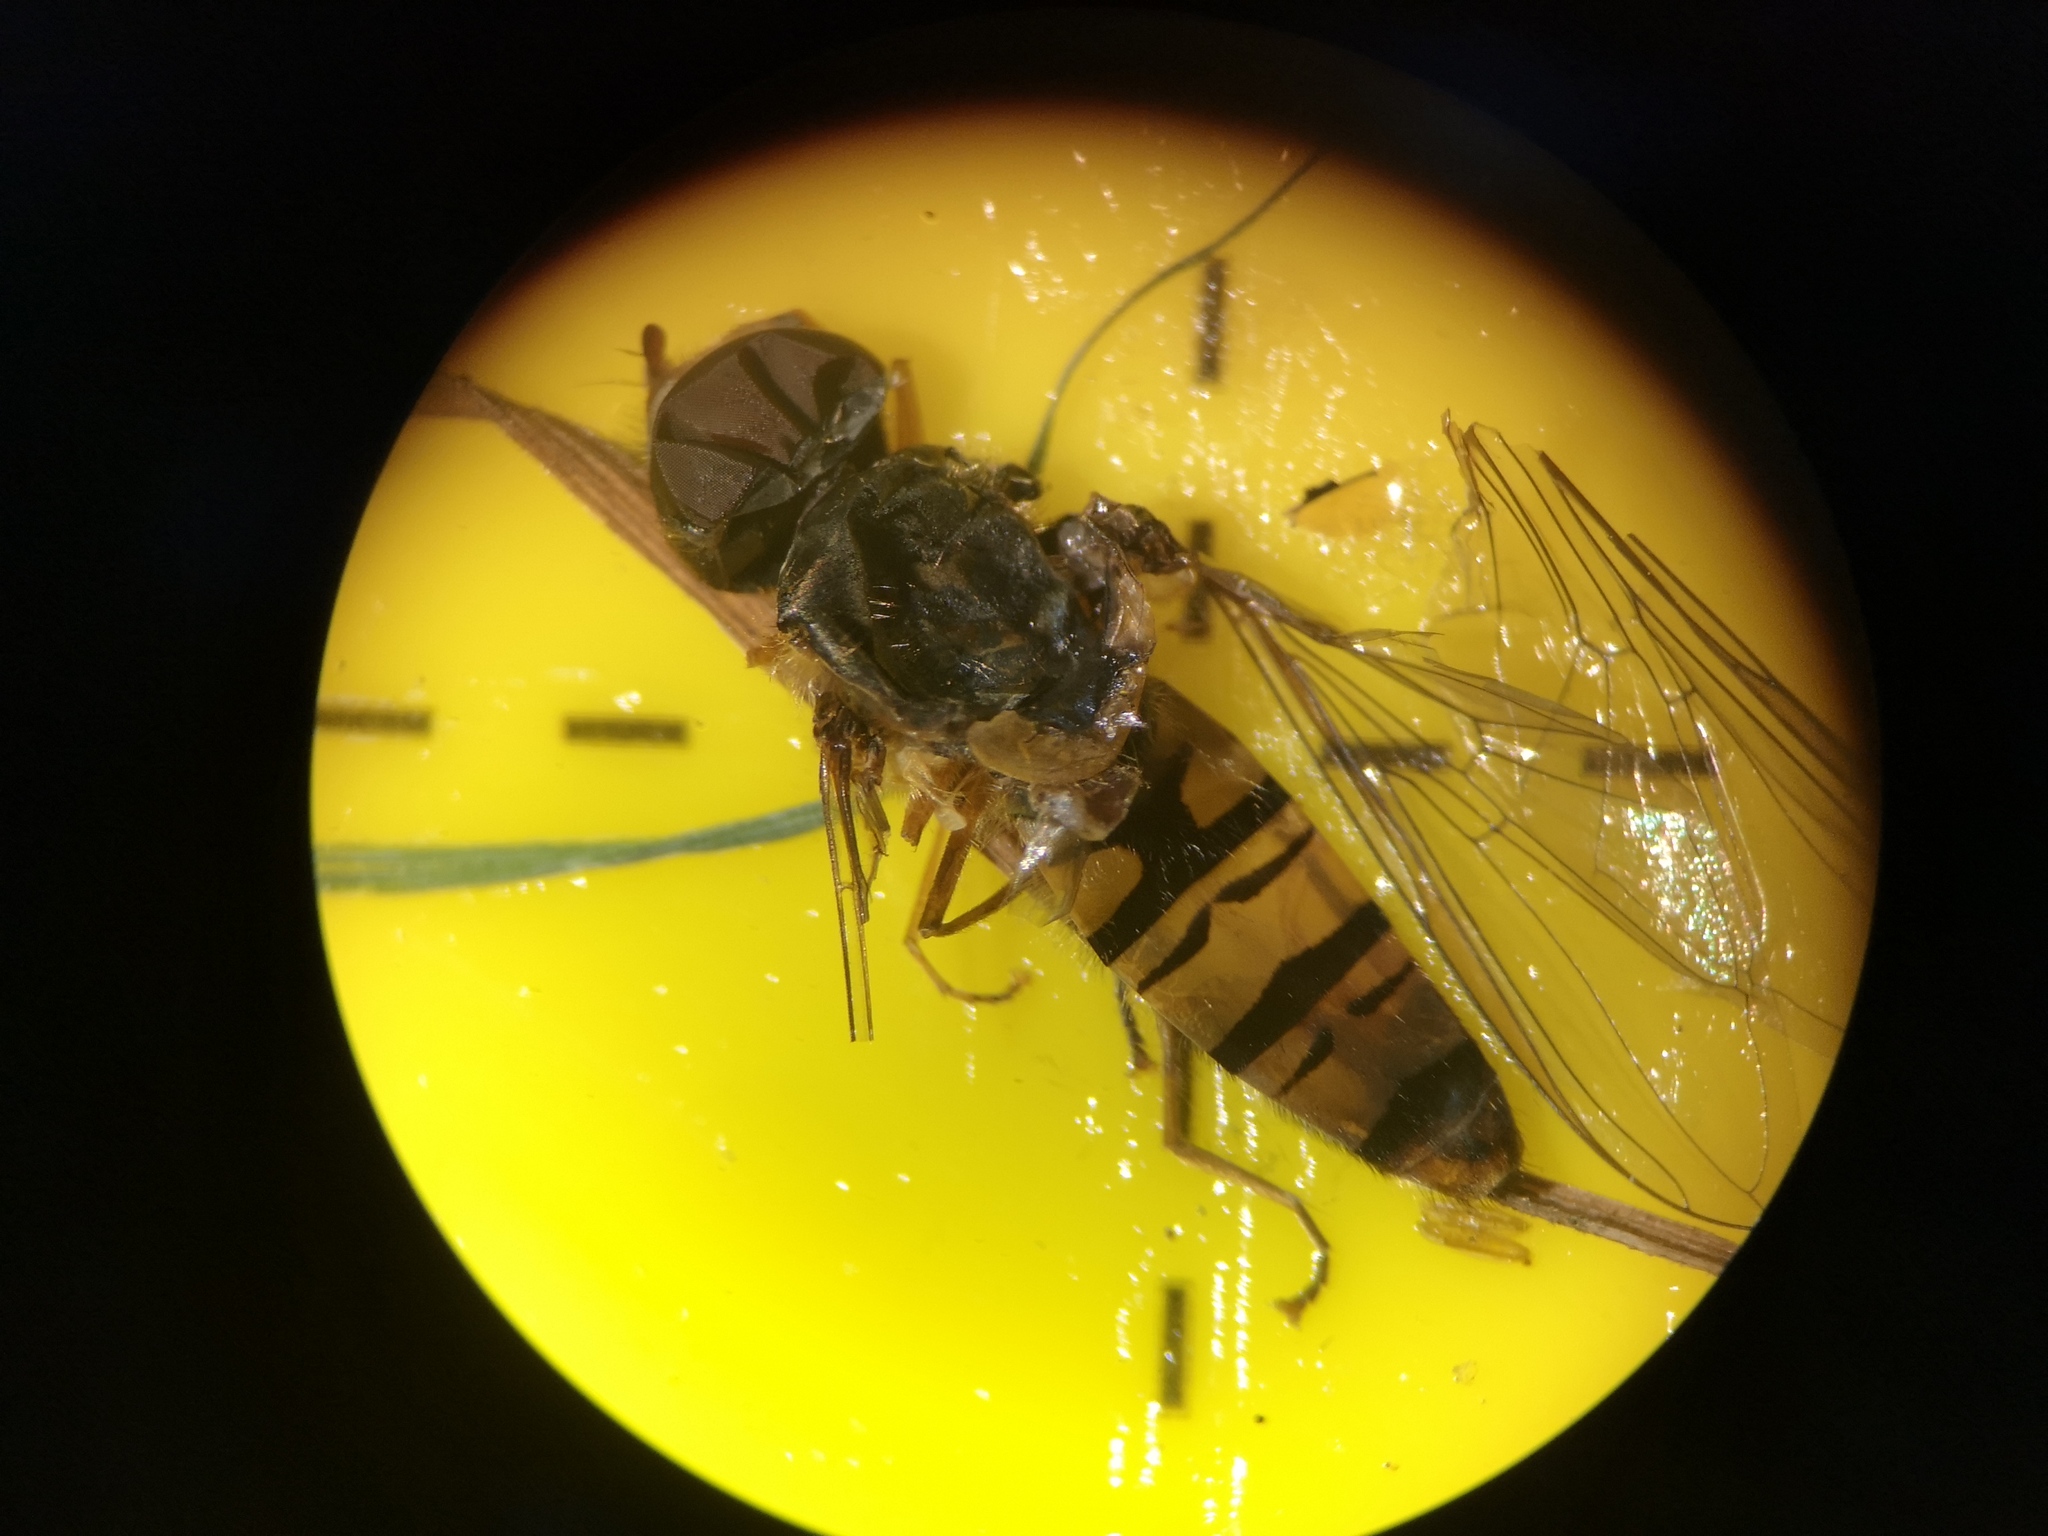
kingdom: Animalia
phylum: Arthropoda
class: Insecta
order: Diptera
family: Syrphidae
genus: Episyrphus
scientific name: Episyrphus balteatus
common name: Marmalade hoverfly
